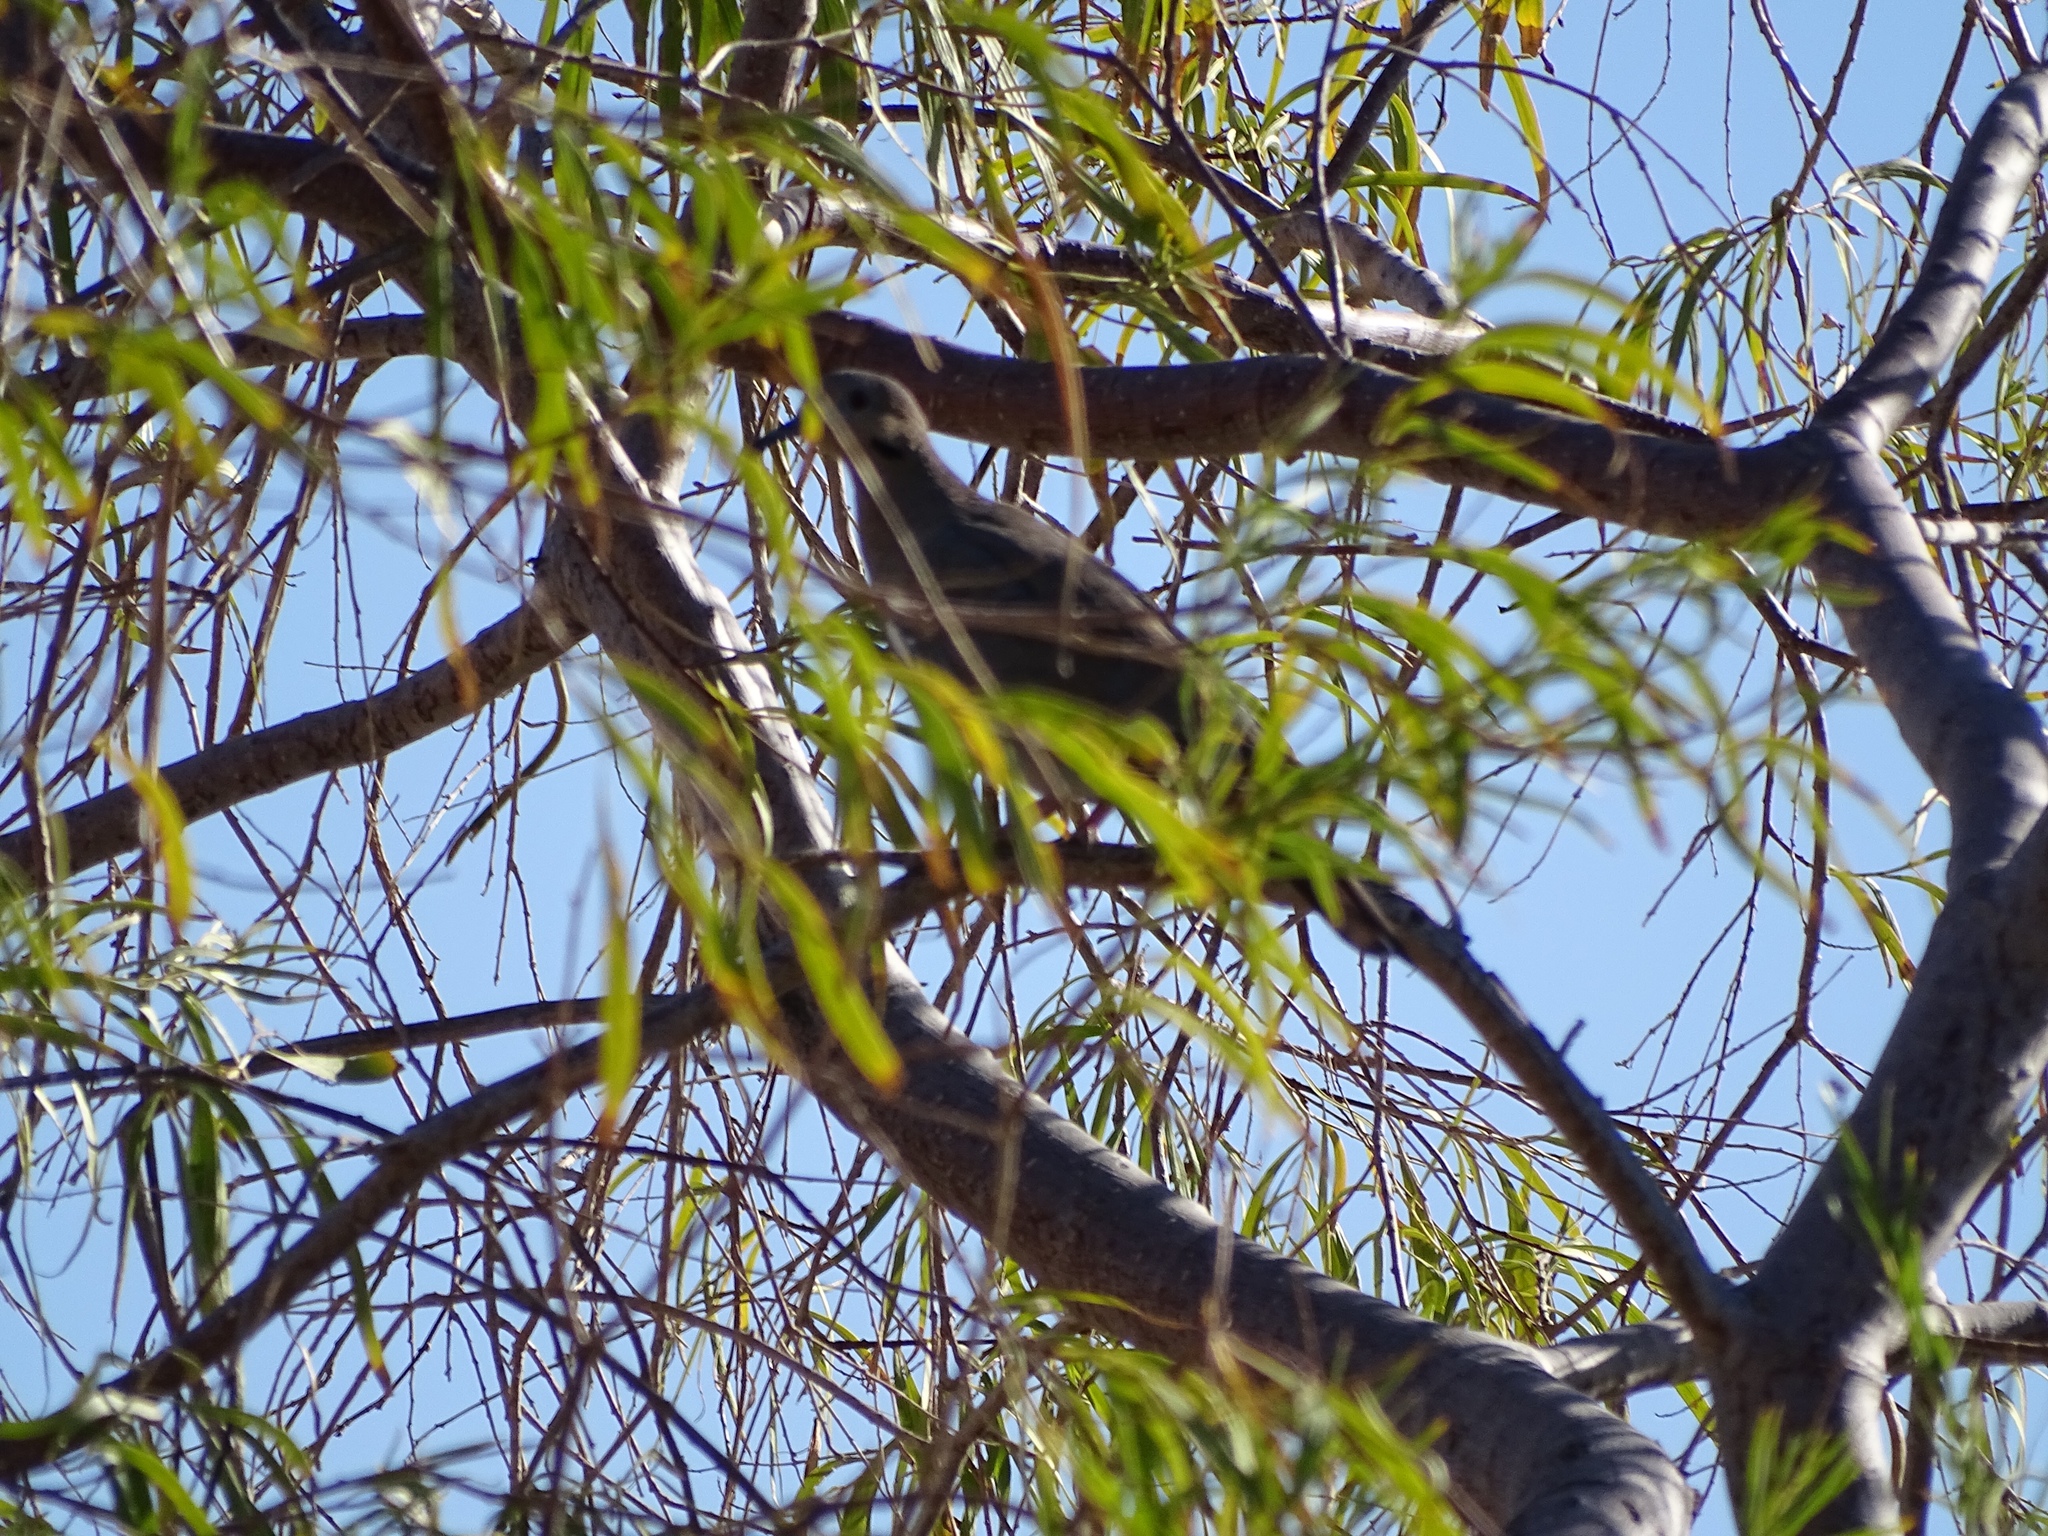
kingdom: Animalia
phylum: Chordata
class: Aves
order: Columbiformes
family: Columbidae
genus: Zenaida
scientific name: Zenaida asiatica
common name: White-winged dove
